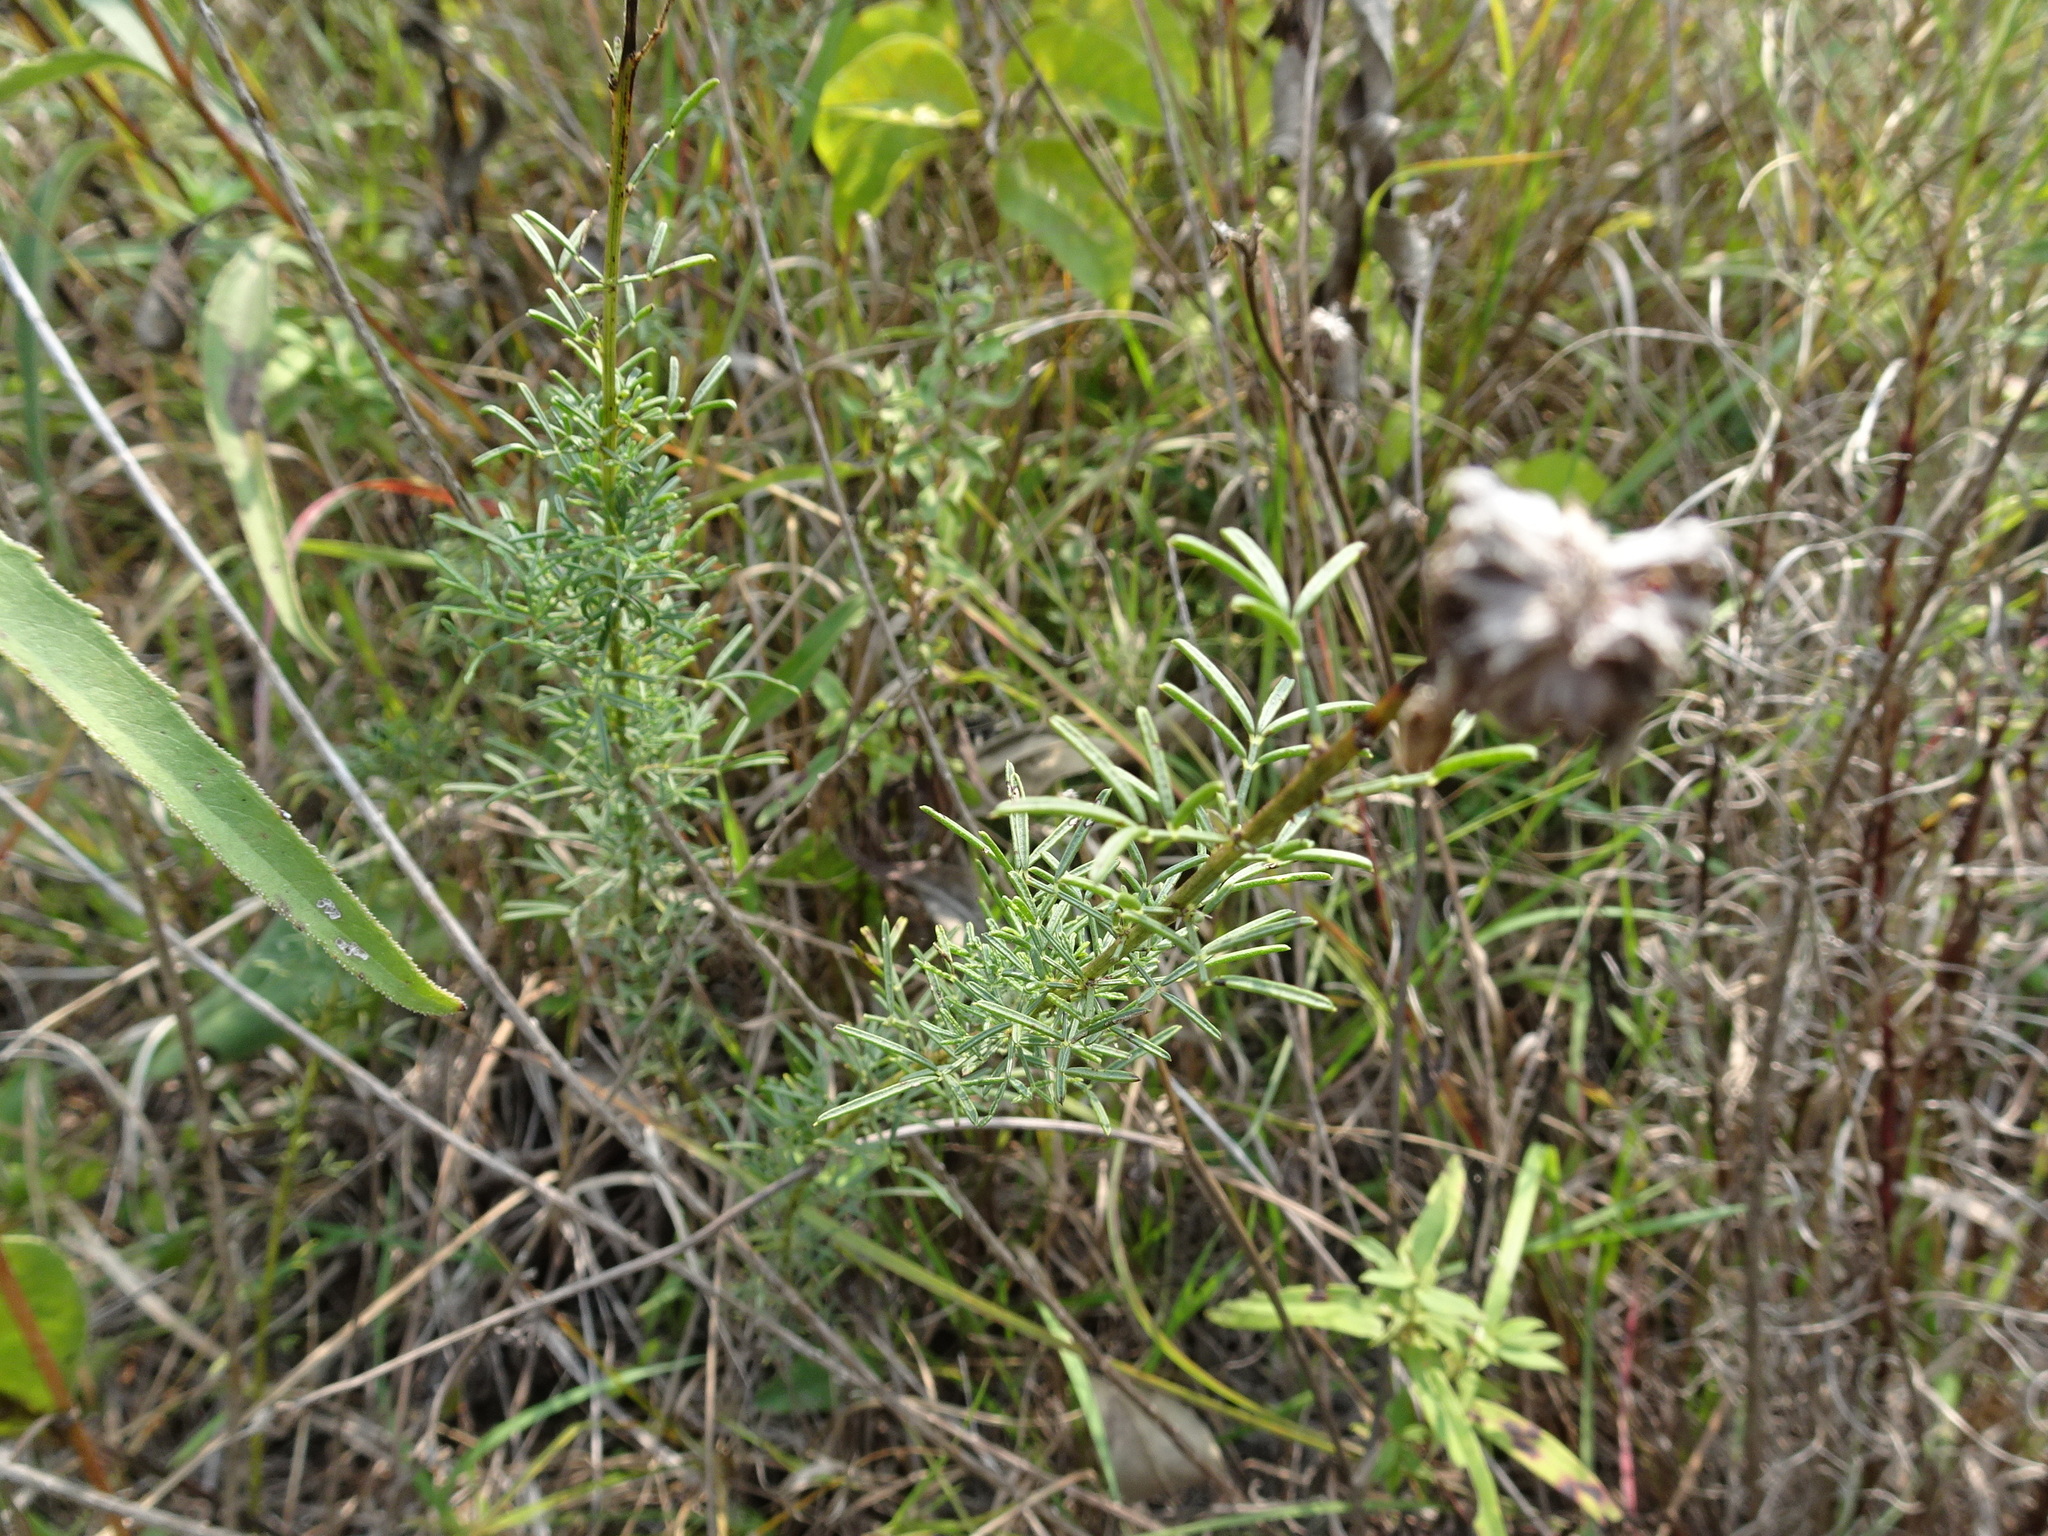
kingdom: Plantae
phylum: Tracheophyta
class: Magnoliopsida
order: Fabales
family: Fabaceae
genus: Dalea
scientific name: Dalea purpurea
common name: Purple prairie-clover
